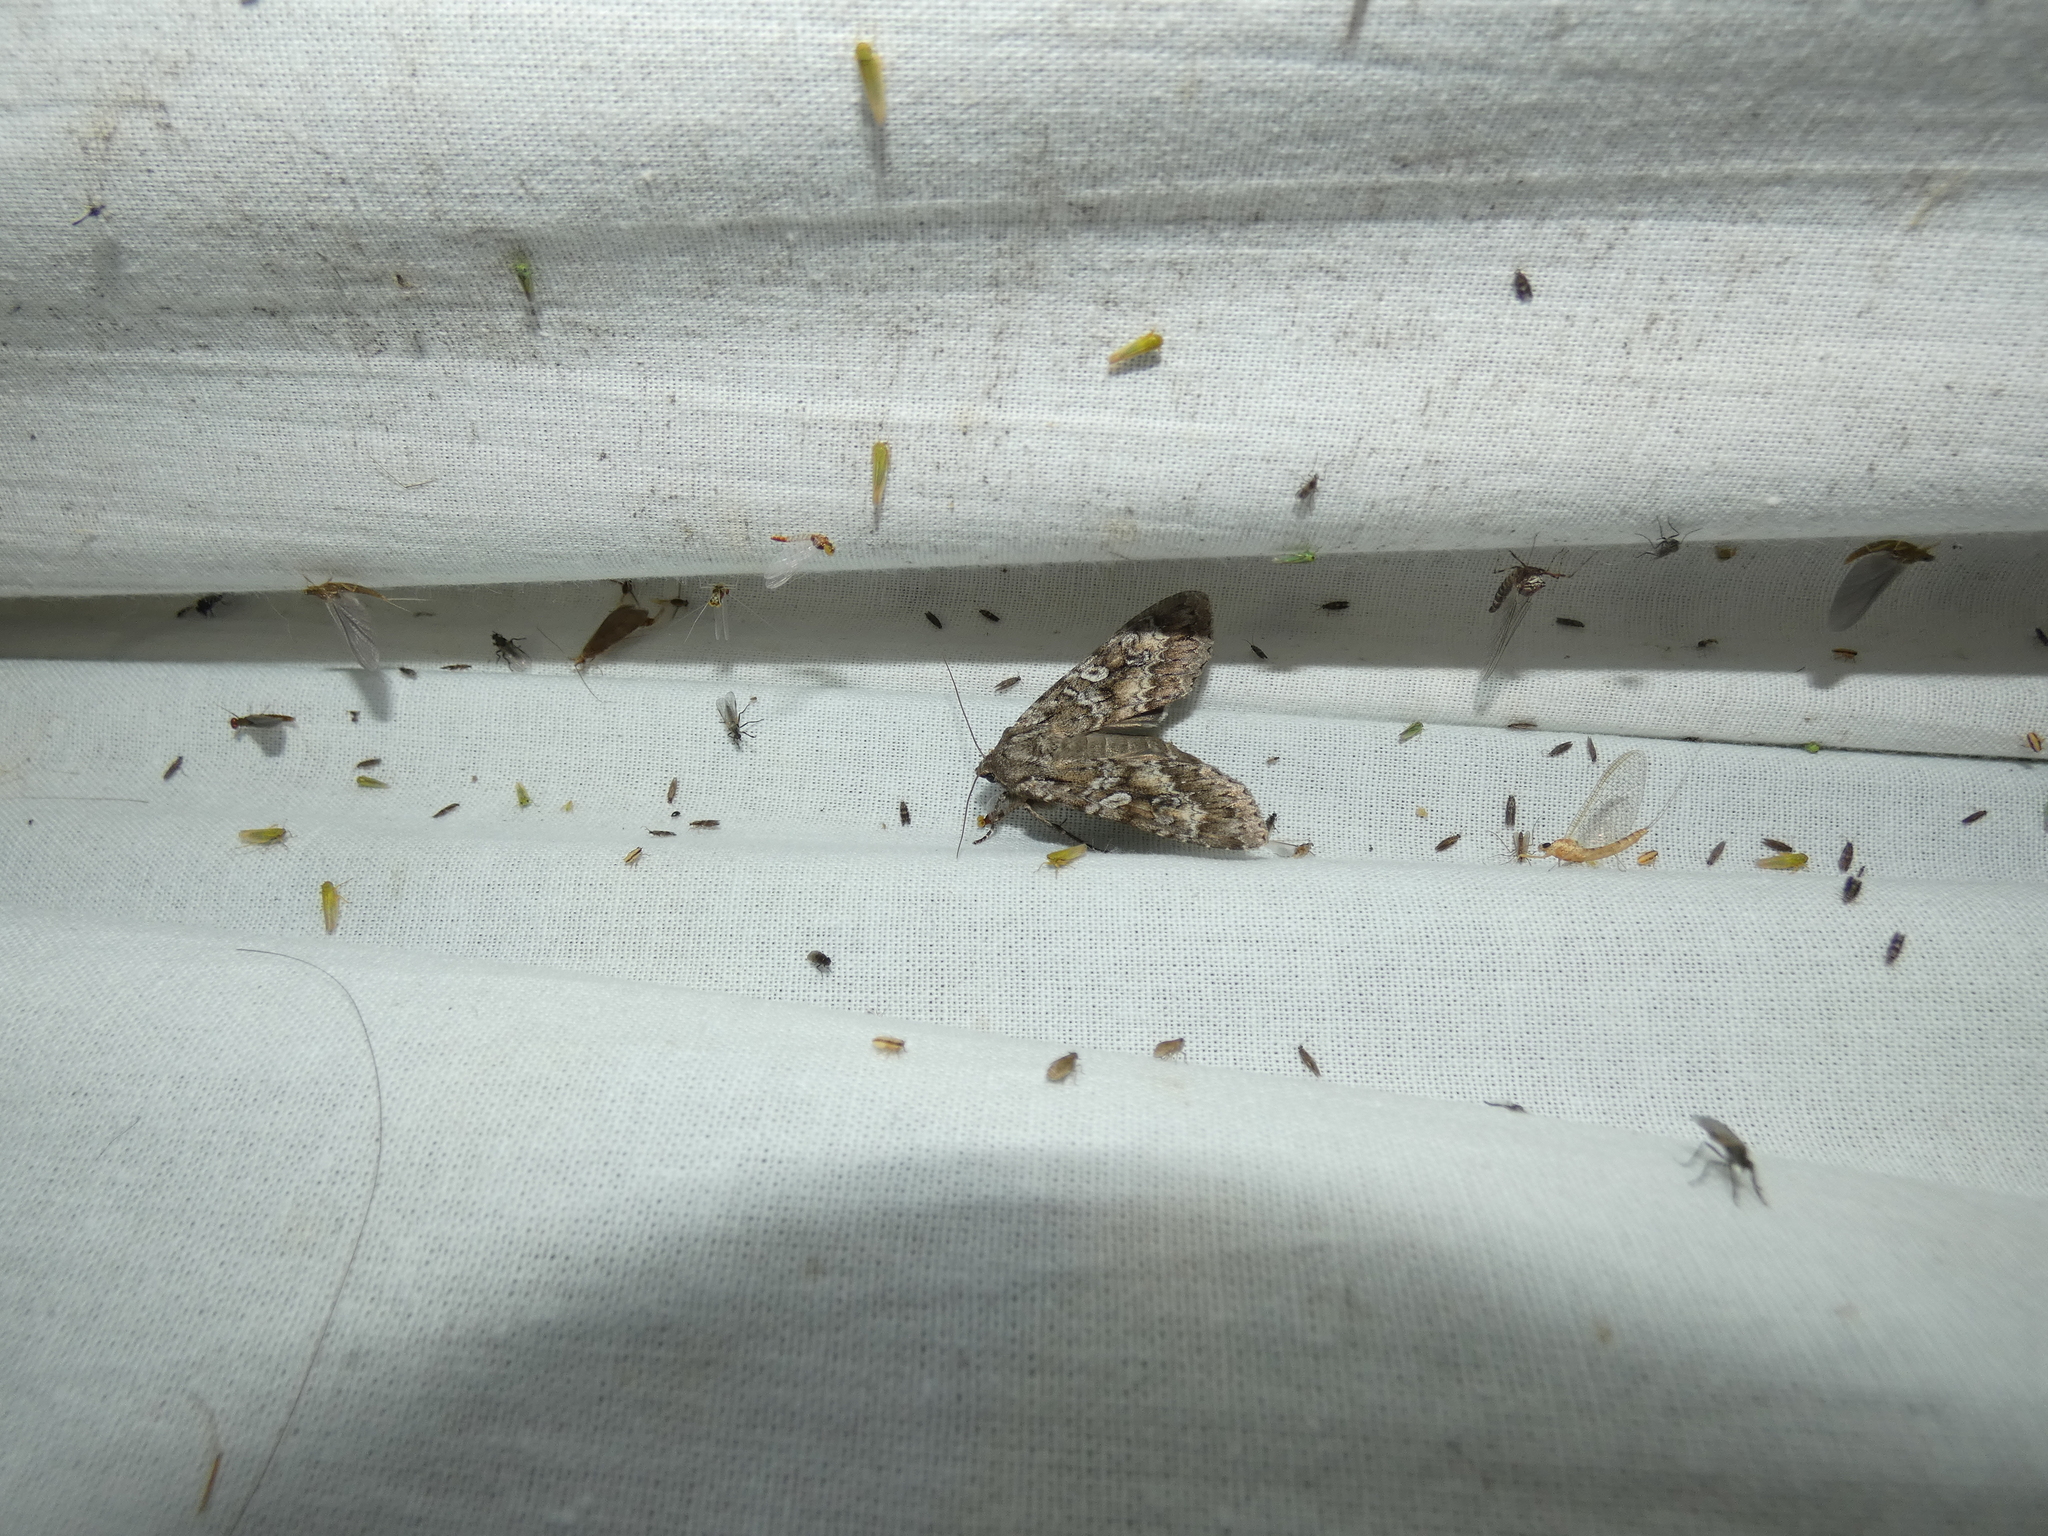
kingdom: Animalia
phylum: Arthropoda
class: Insecta
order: Lepidoptera
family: Noctuidae
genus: Eurois
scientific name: Eurois occulta
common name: Great brocade
